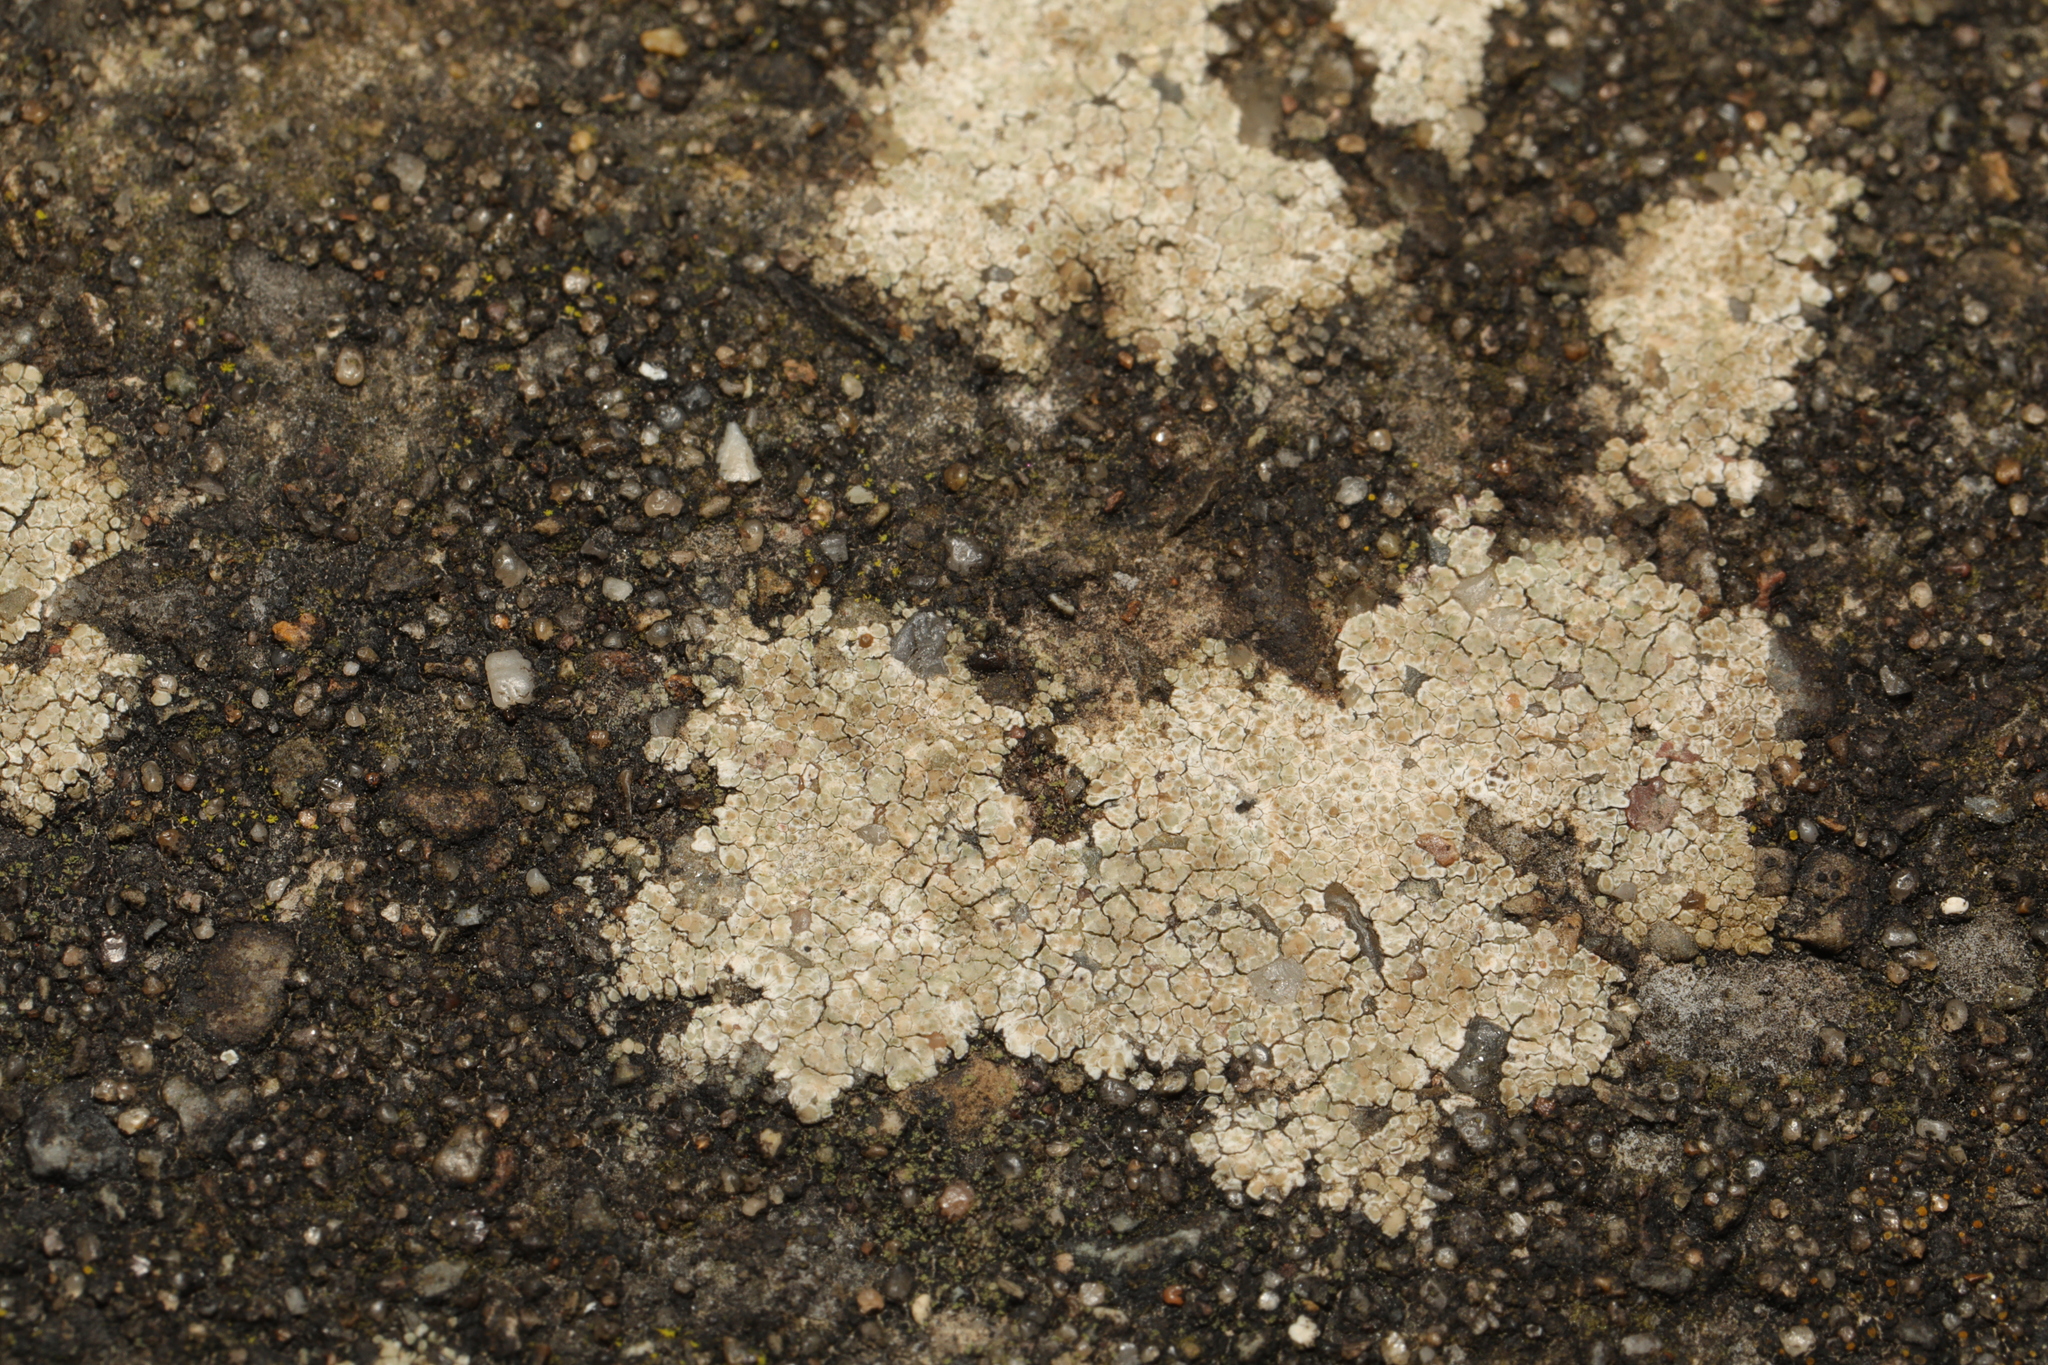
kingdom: Fungi
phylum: Ascomycota
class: Lecanoromycetes
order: Lecanorales
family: Lecanoraceae
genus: Polyozosia
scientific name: Polyozosia albescens
